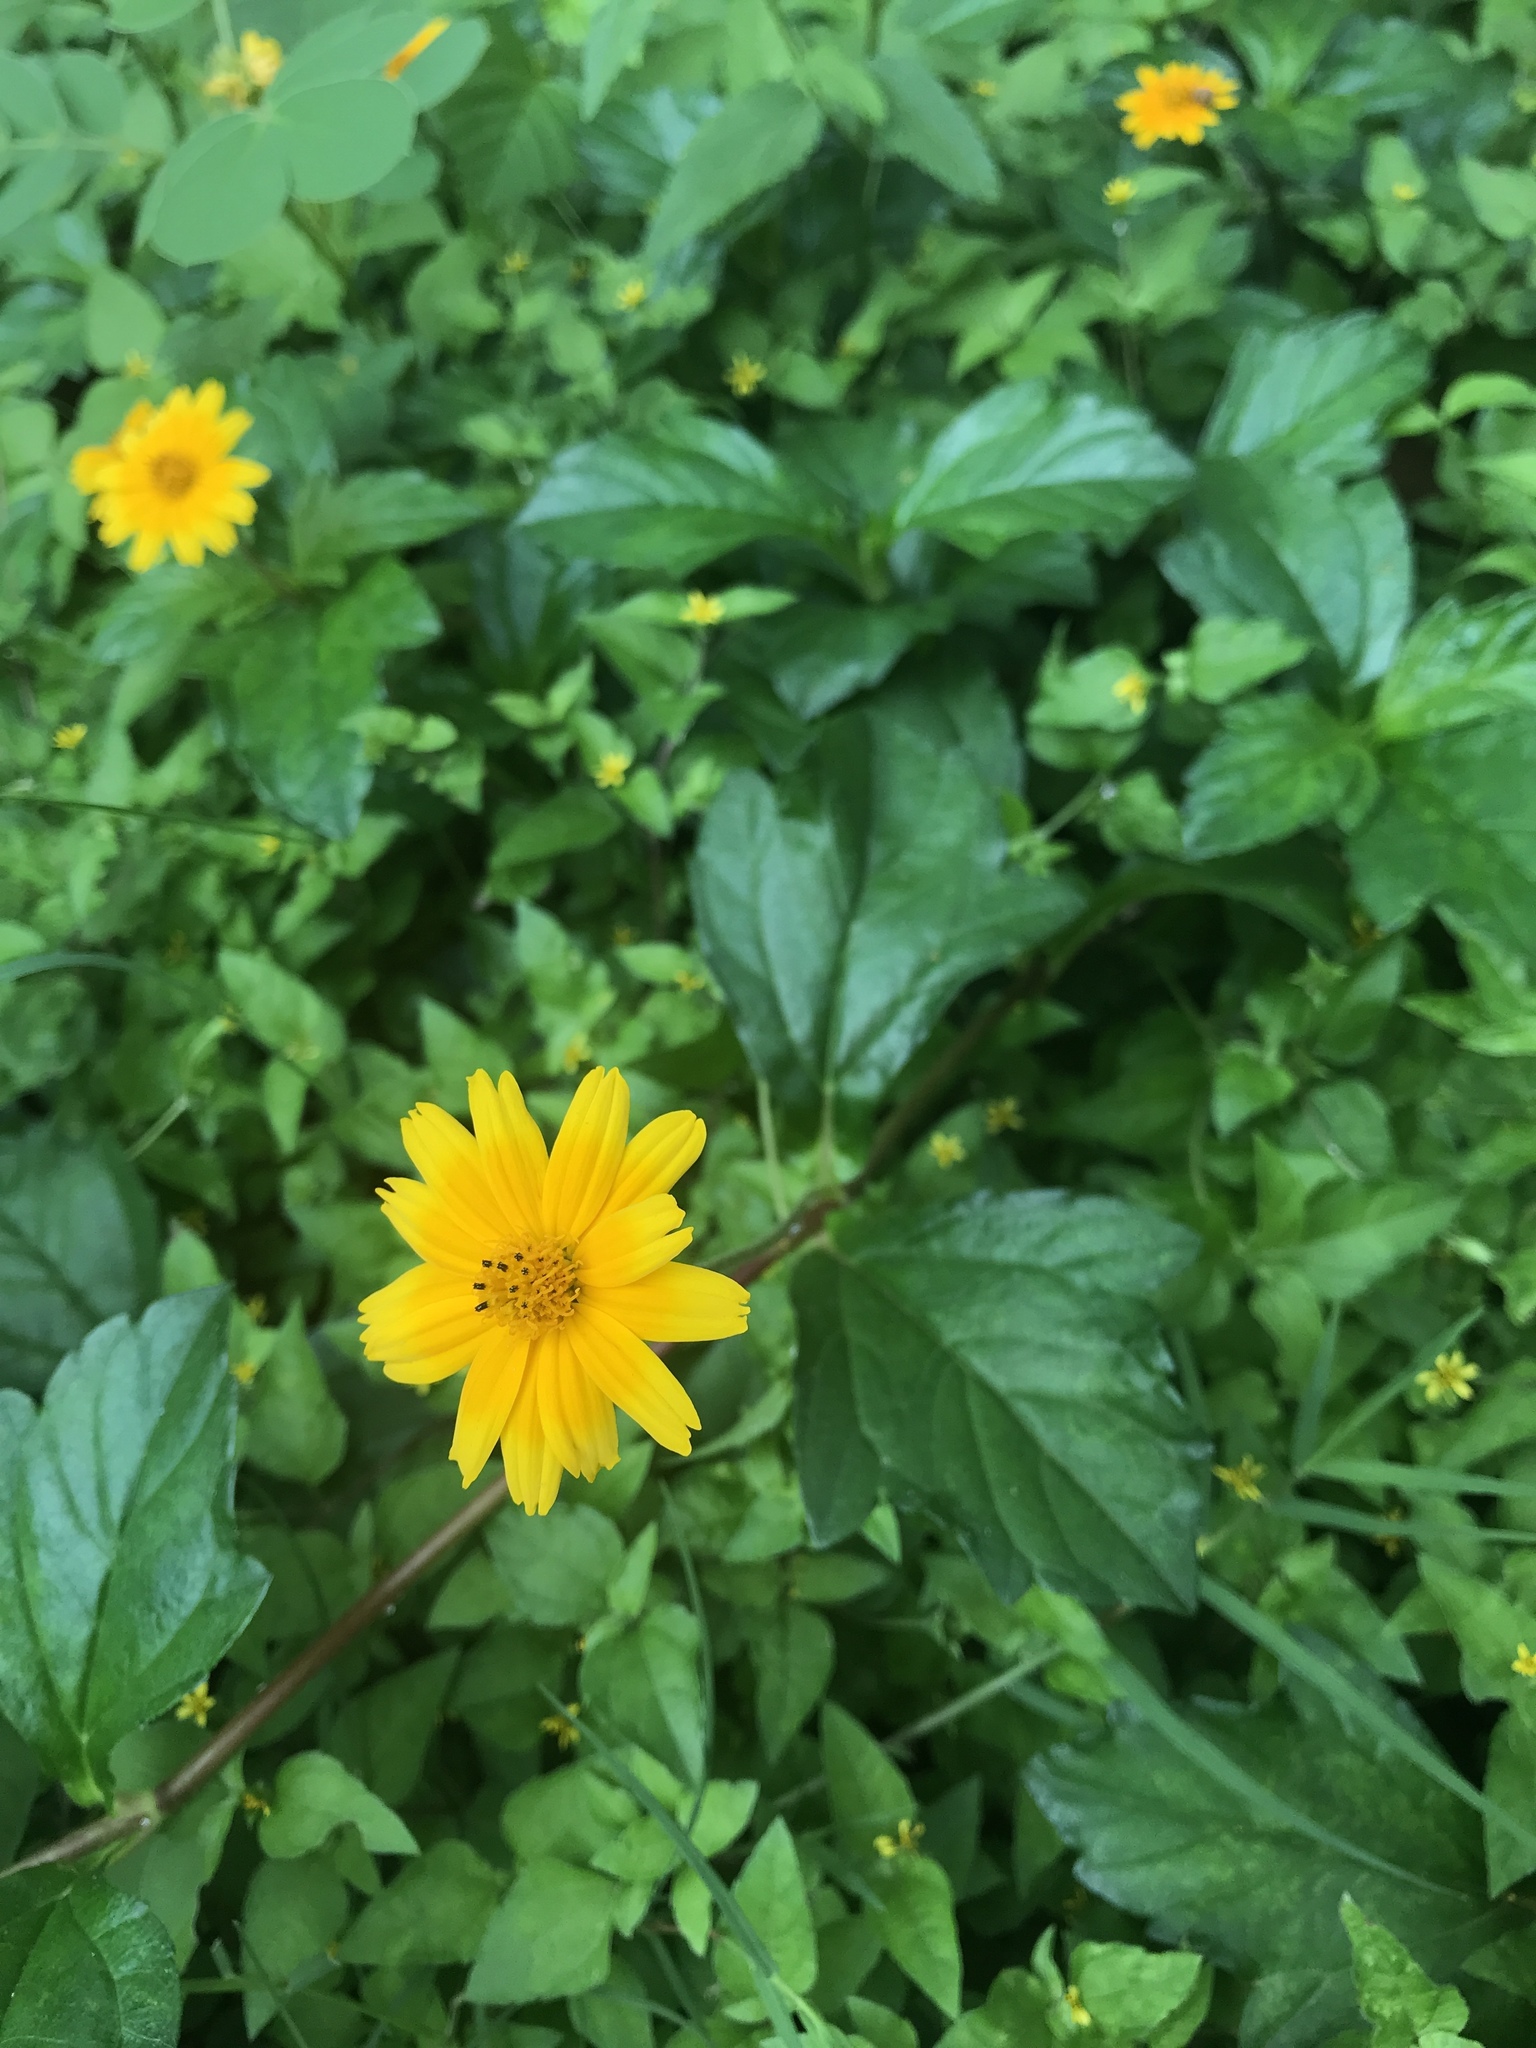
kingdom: Plantae
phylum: Tracheophyta
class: Magnoliopsida
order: Asterales
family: Asteraceae
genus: Sphagneticola
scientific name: Sphagneticola trilobata
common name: Bay biscayne creeping-oxeye
